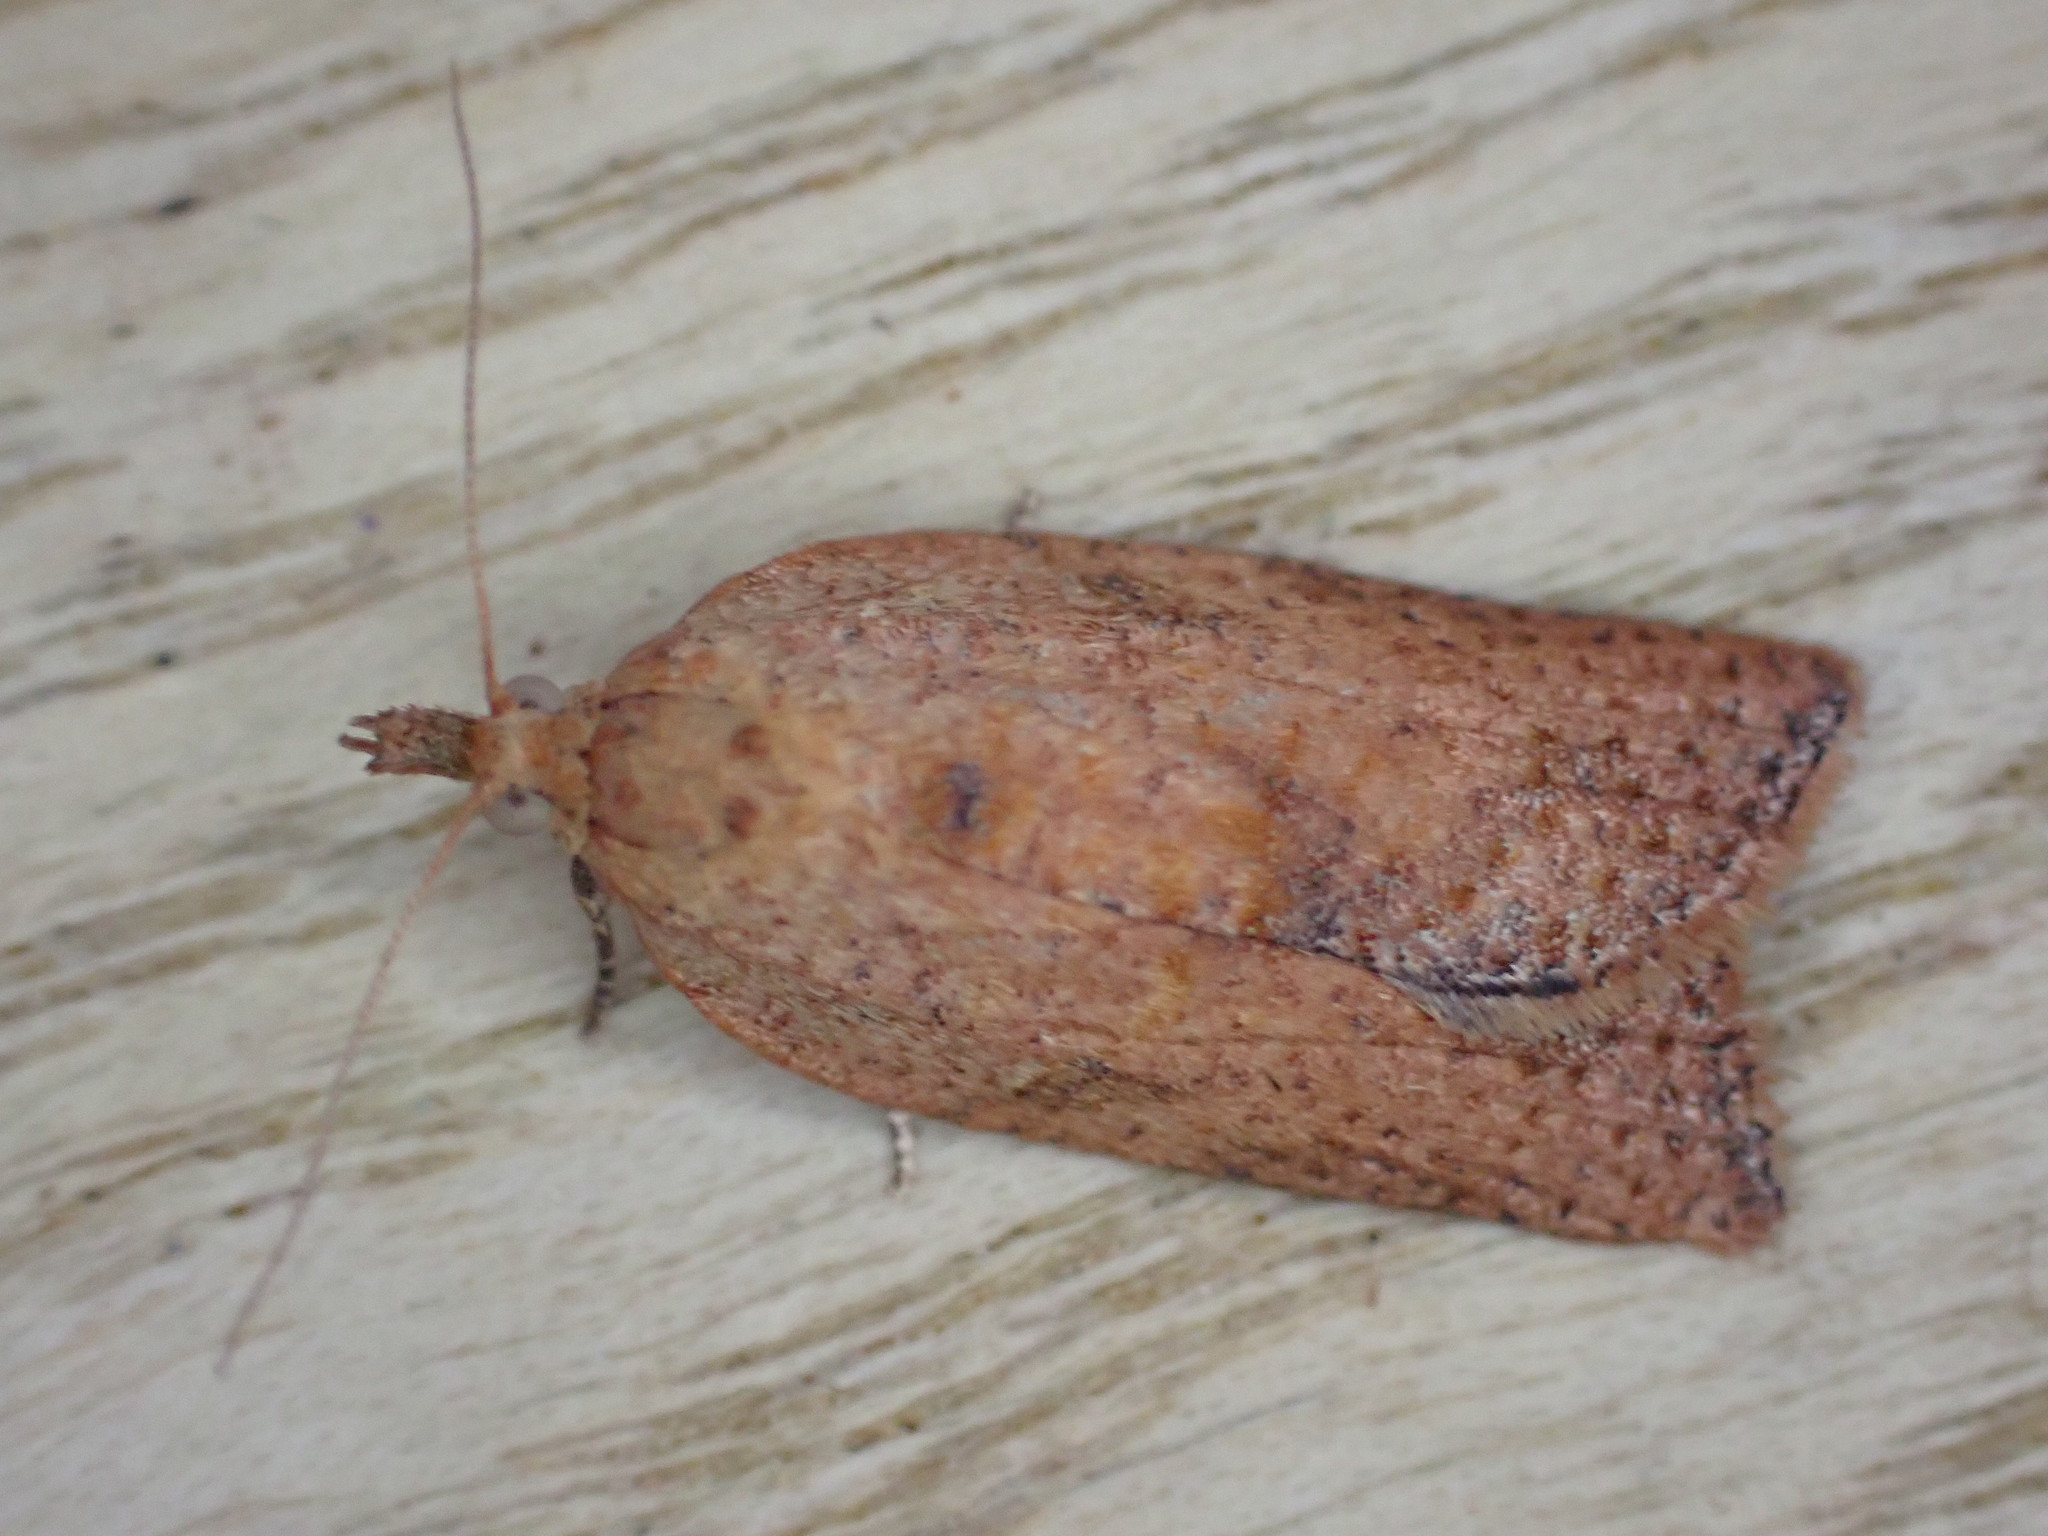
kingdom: Animalia
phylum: Arthropoda
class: Insecta
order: Lepidoptera
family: Tortricidae
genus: Epiphyas
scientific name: Epiphyas postvittana
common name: Light brown apple moth
